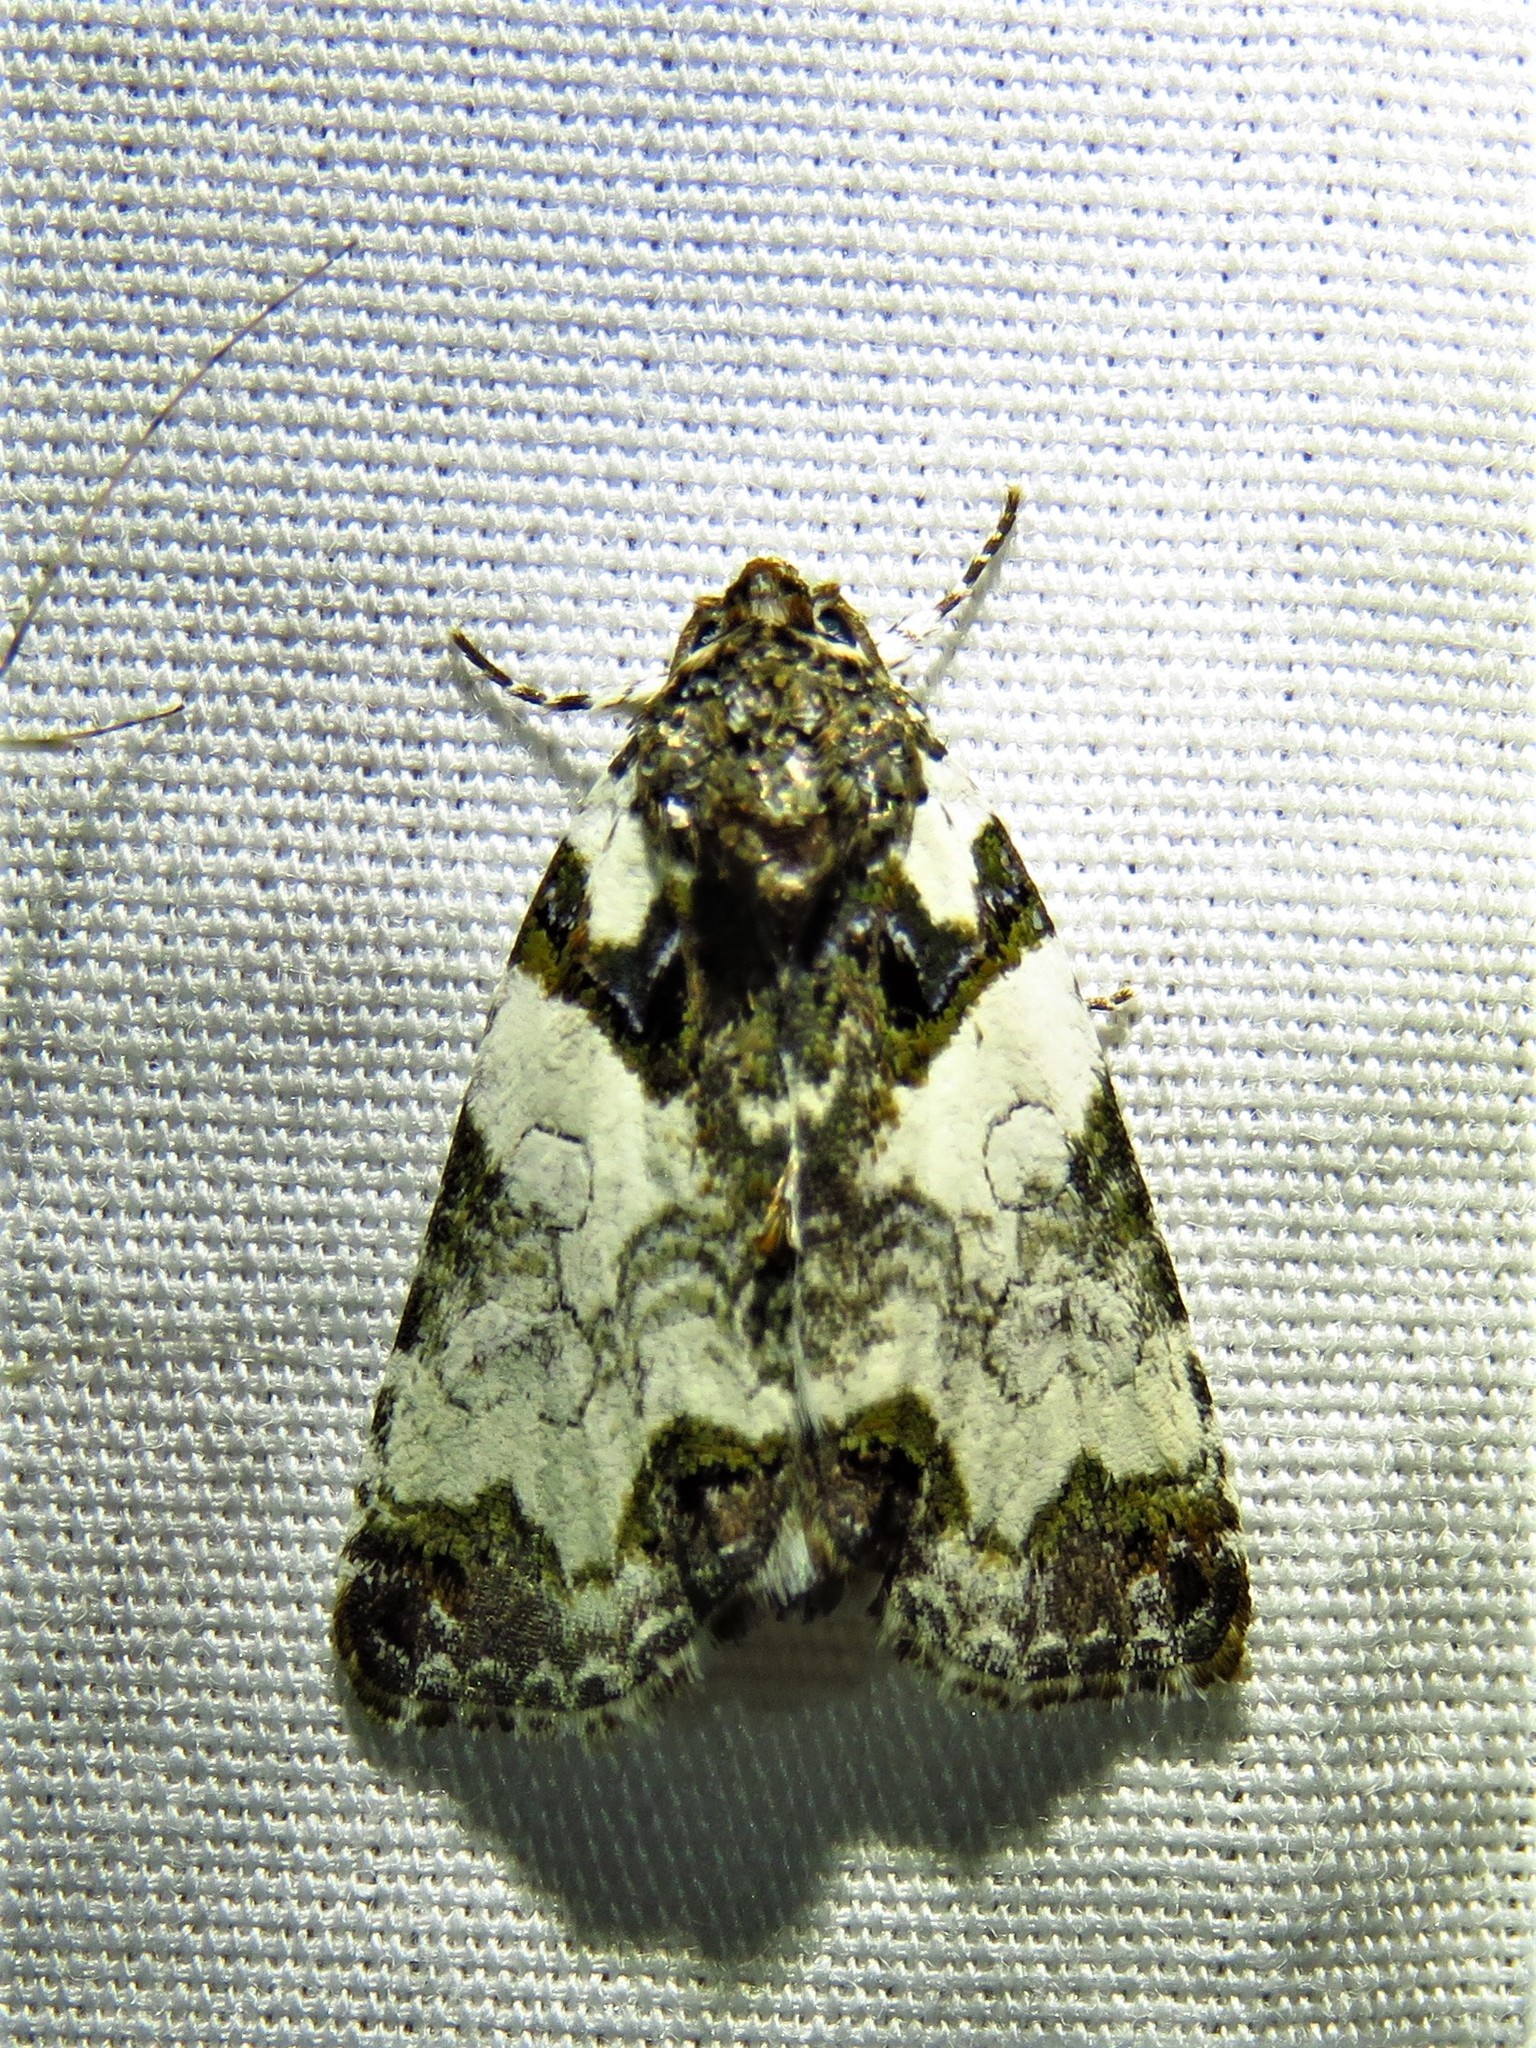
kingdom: Animalia
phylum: Arthropoda
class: Insecta
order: Lepidoptera
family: Noctuidae
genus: Cerma
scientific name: Cerma cerintha
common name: Tufted bird-dropping moth
